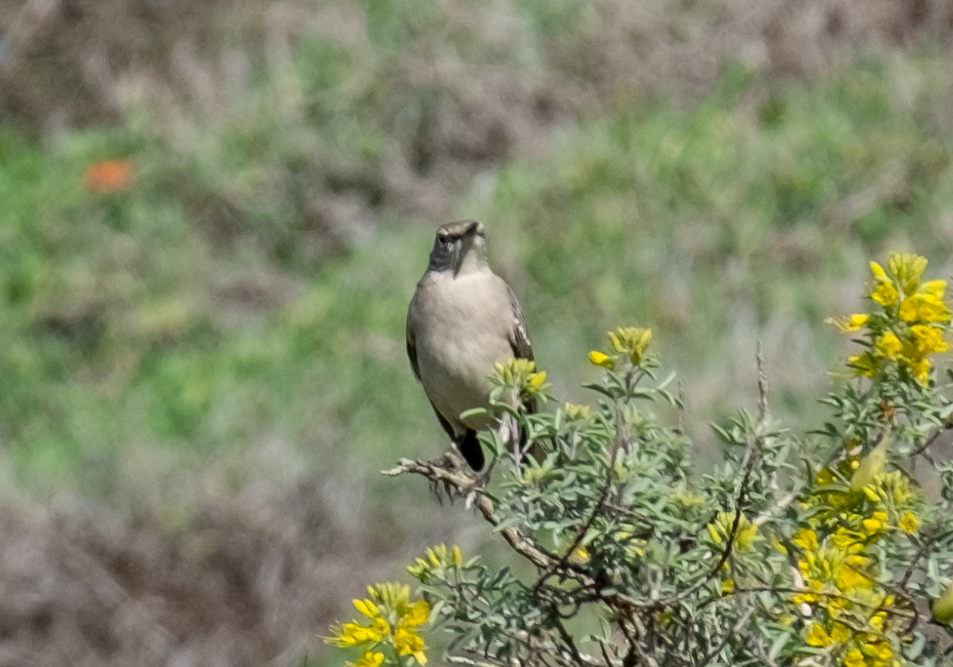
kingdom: Animalia
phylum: Chordata
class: Aves
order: Passeriformes
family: Mimidae
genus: Mimus
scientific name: Mimus polyglottos
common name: Northern mockingbird
